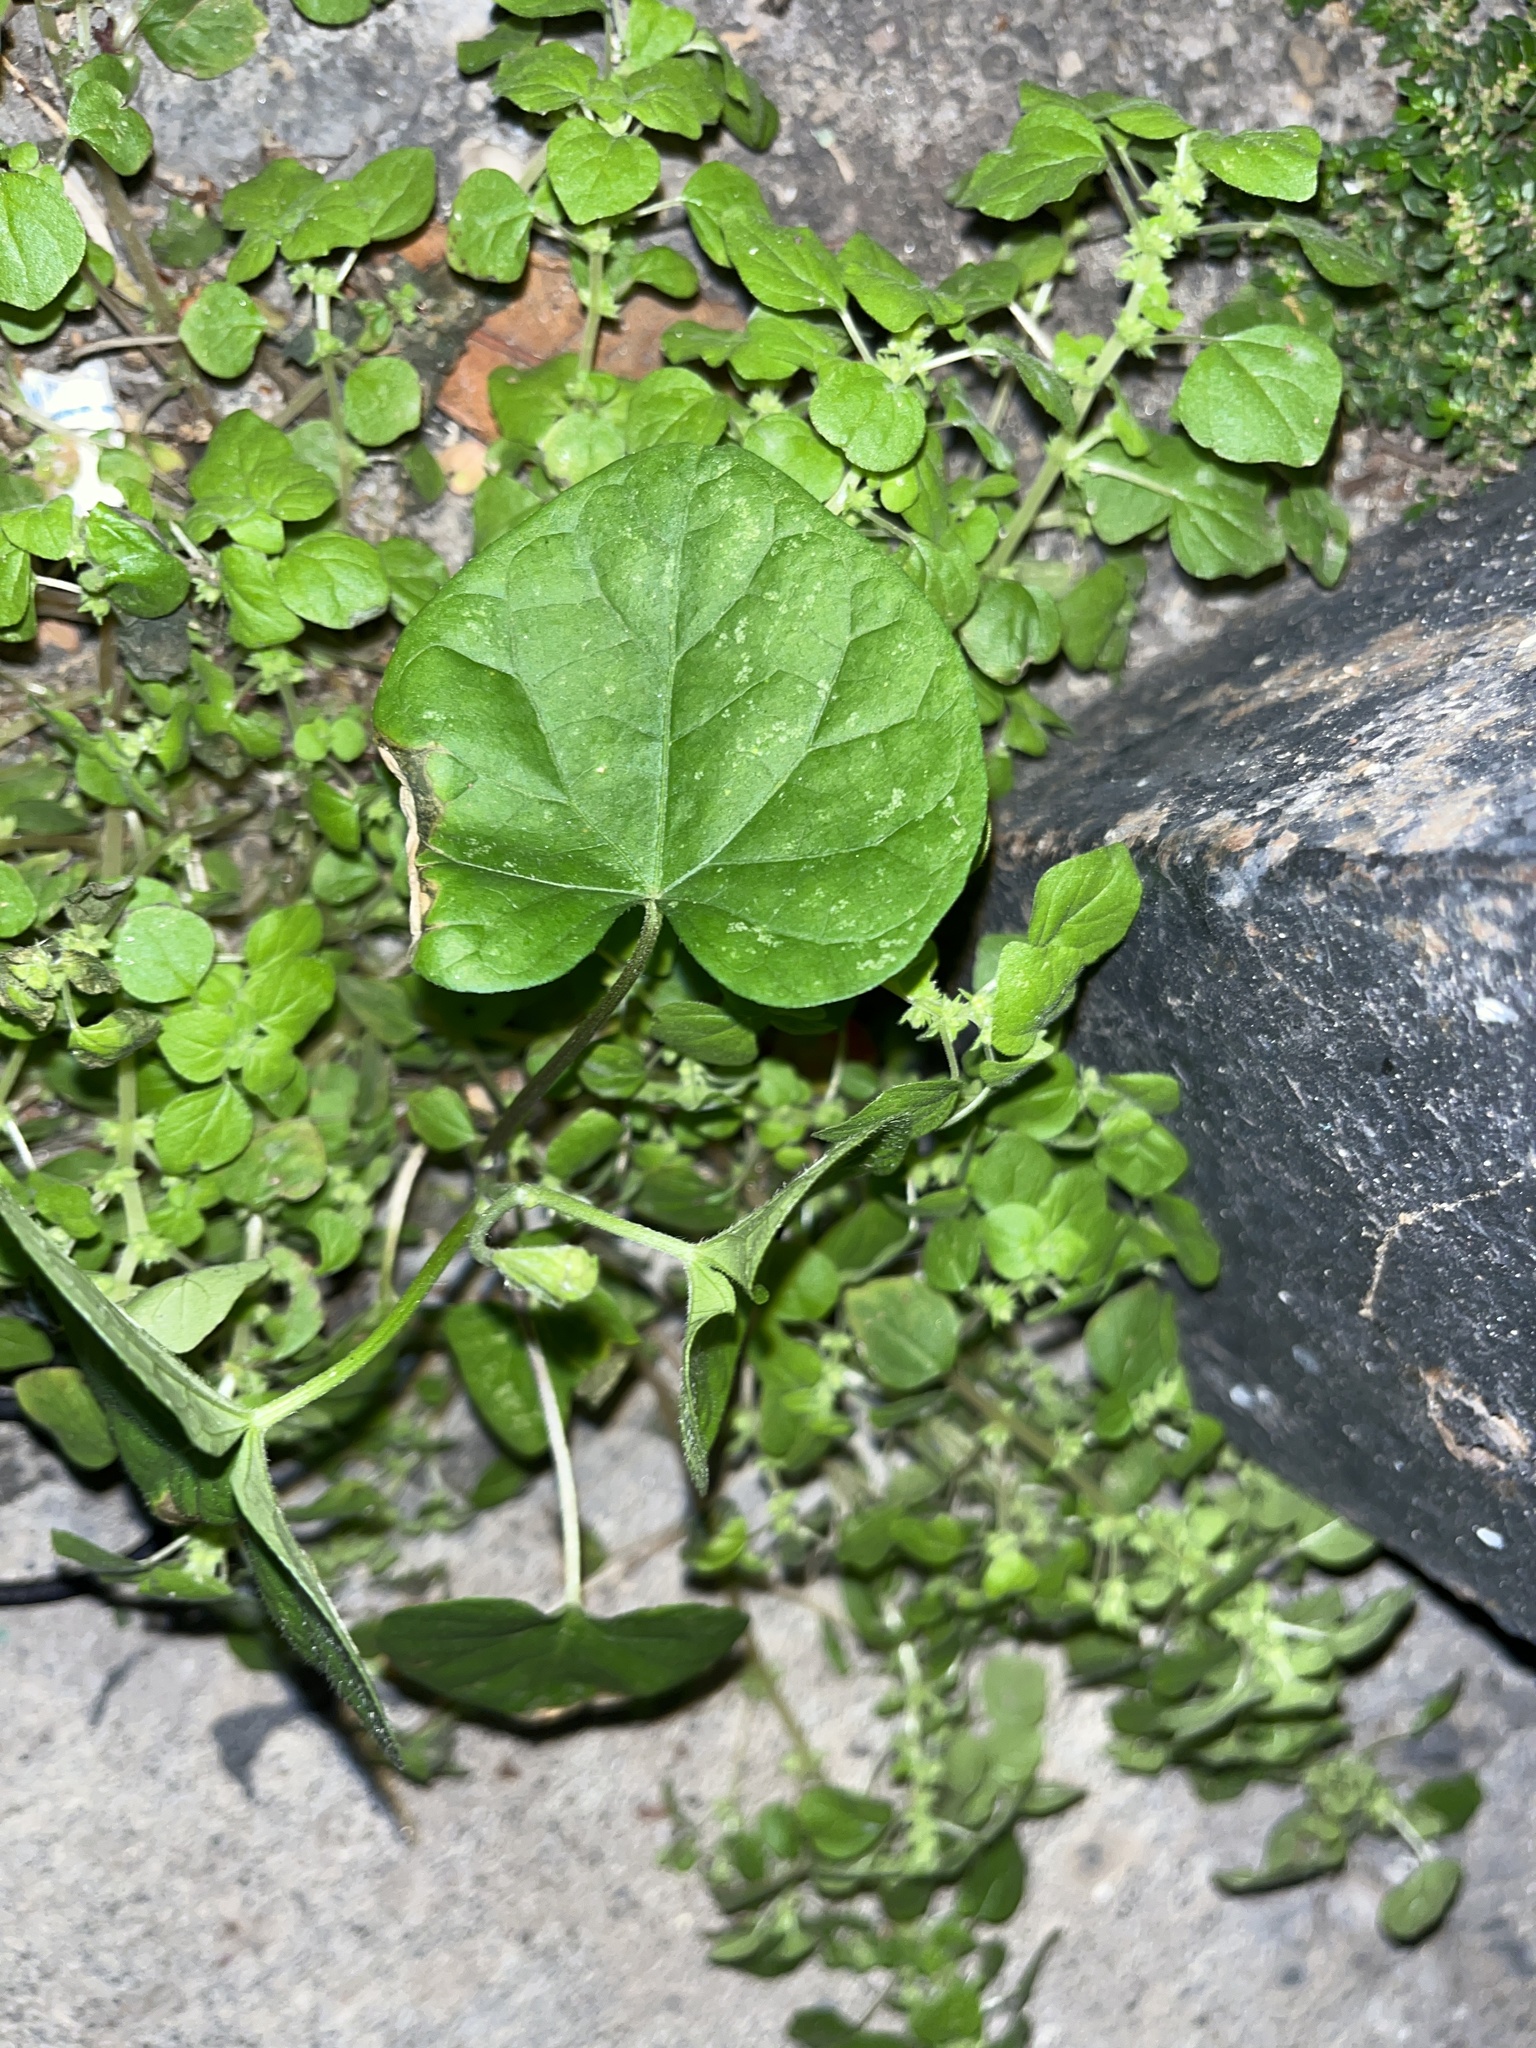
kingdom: Plantae
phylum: Tracheophyta
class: Magnoliopsida
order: Ranunculales
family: Menispermaceae
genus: Cocculus
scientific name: Cocculus carolinus
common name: Carolina moonseed
